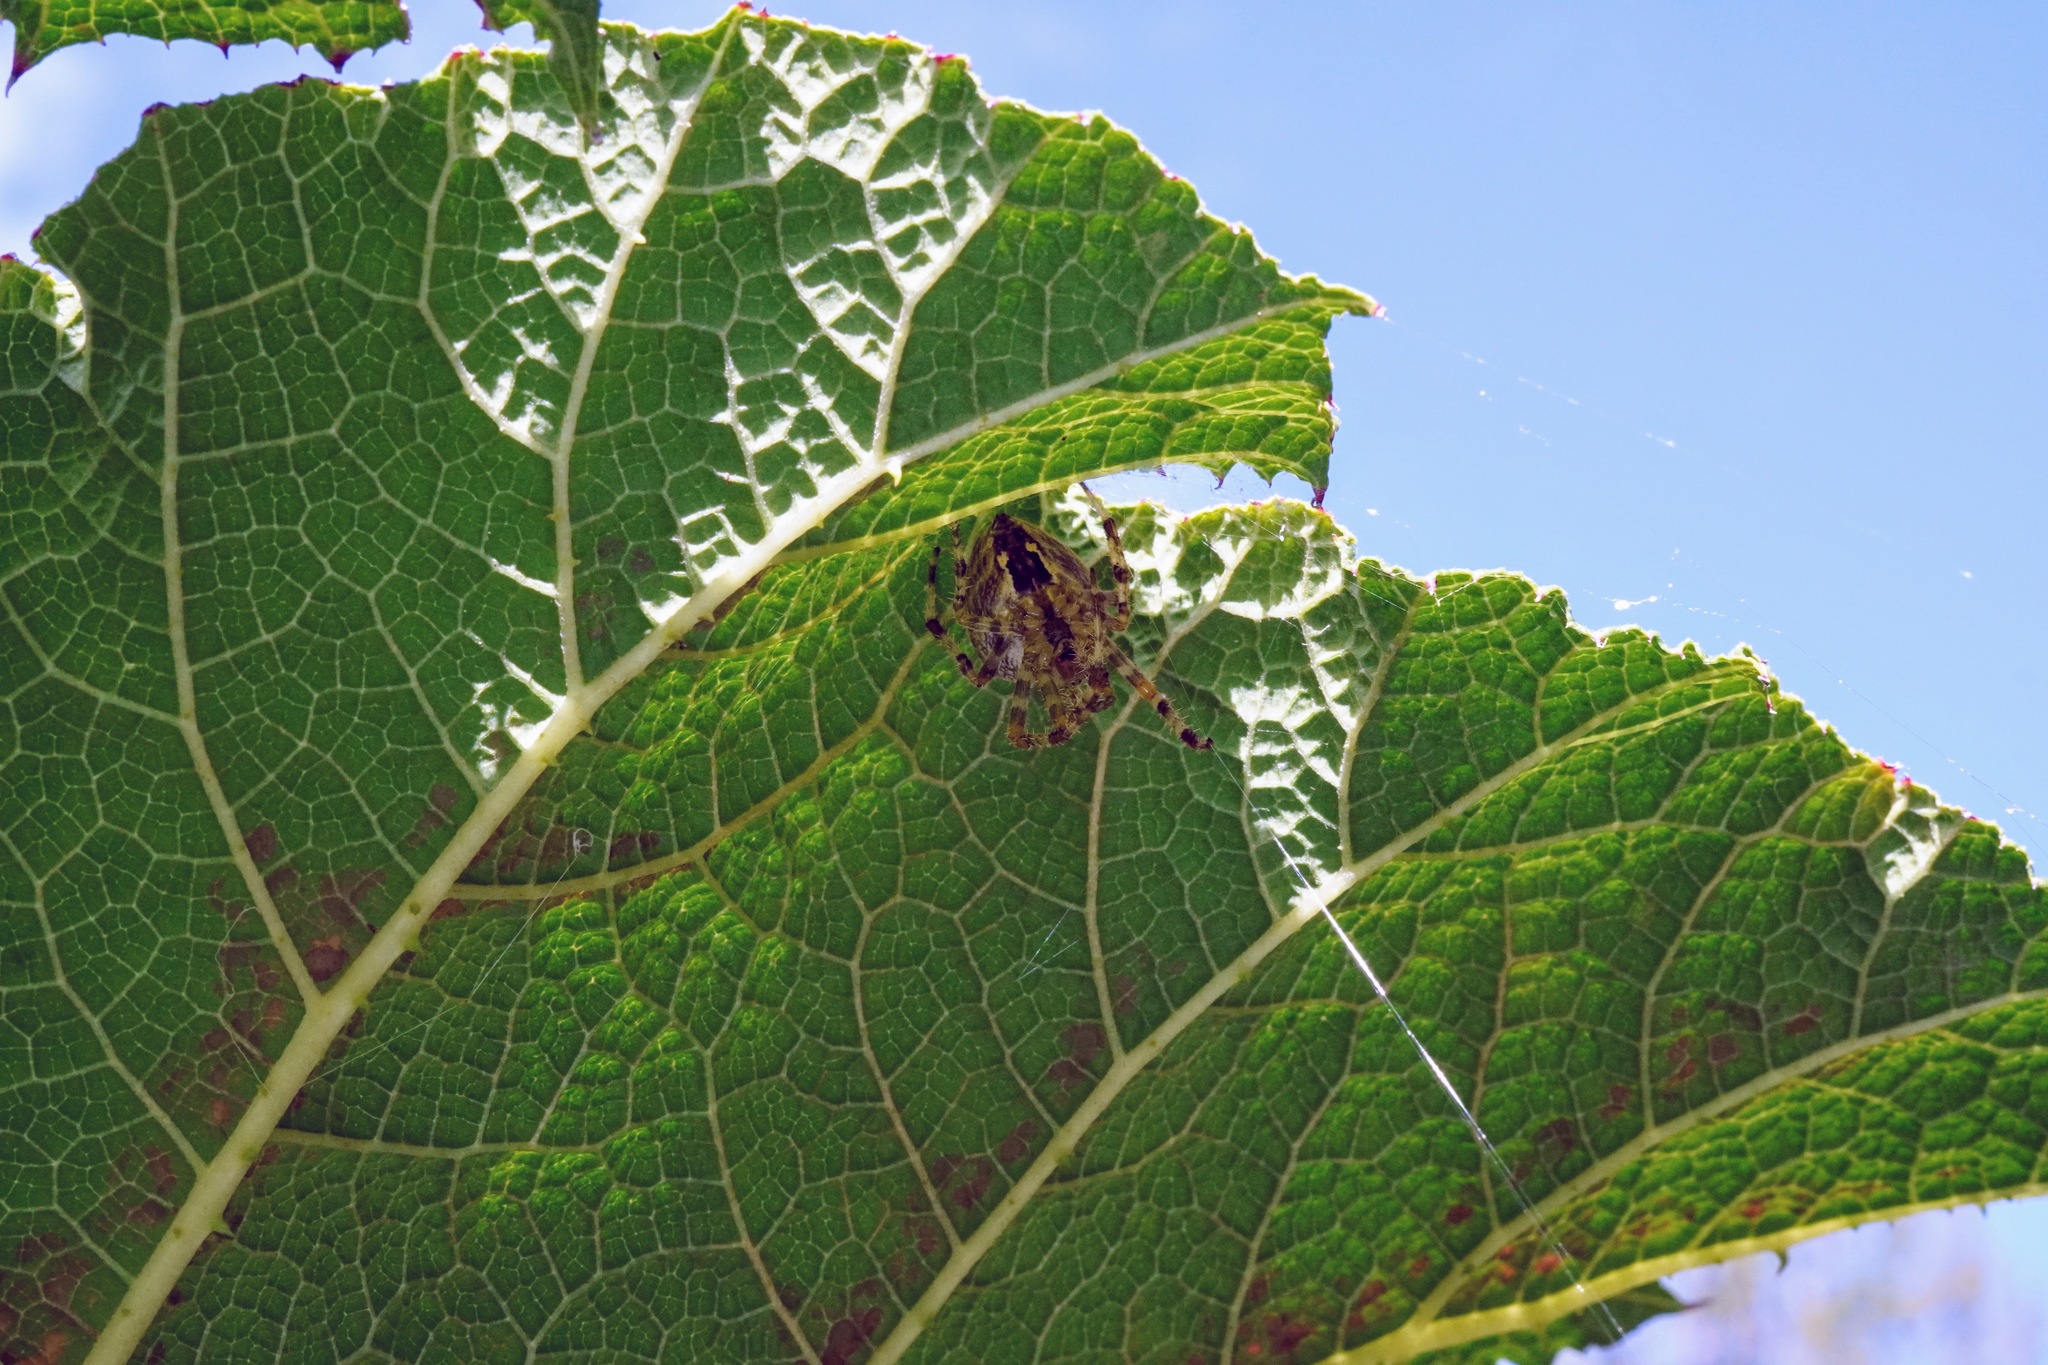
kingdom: Animalia
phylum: Arthropoda
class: Arachnida
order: Araneae
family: Araneidae
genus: Araneus
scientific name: Araneus diadematus
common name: Cross orbweaver
